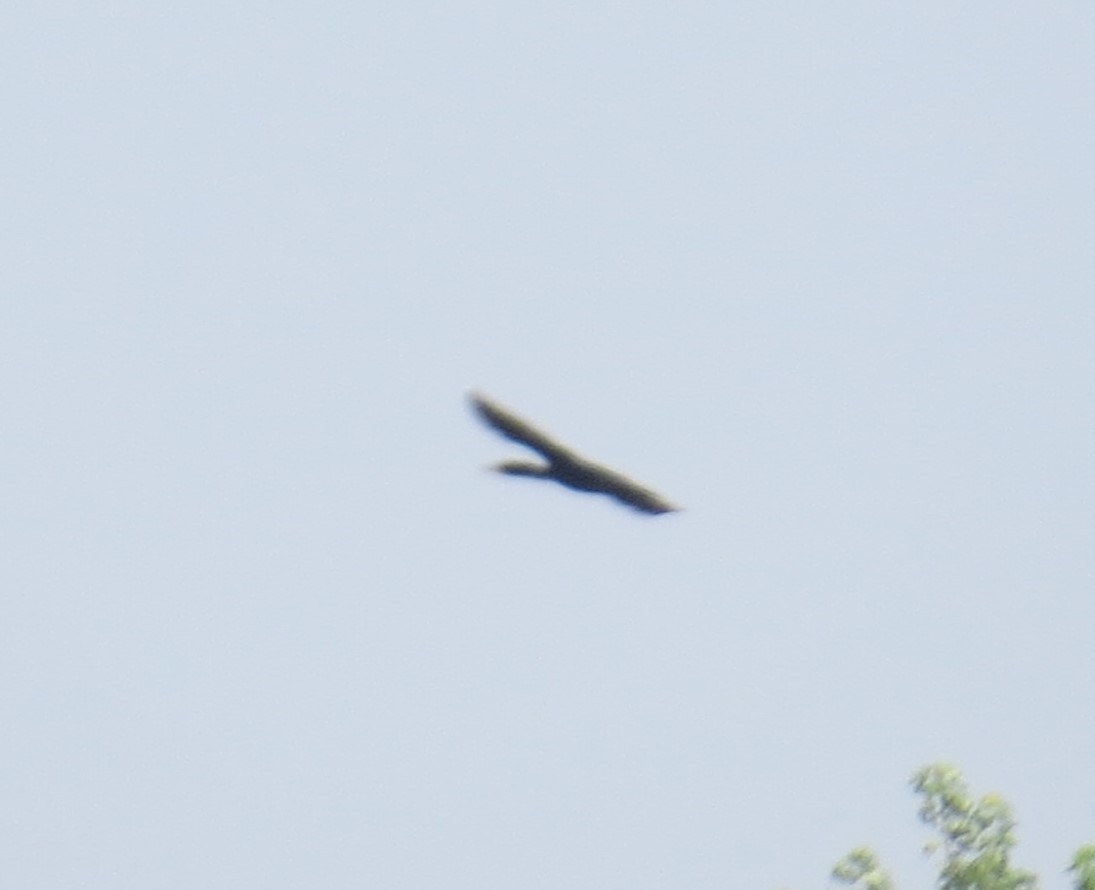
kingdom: Animalia
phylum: Chordata
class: Aves
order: Suliformes
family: Phalacrocoracidae
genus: Phalacrocorax
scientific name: Phalacrocorax auritus
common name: Double-crested cormorant
